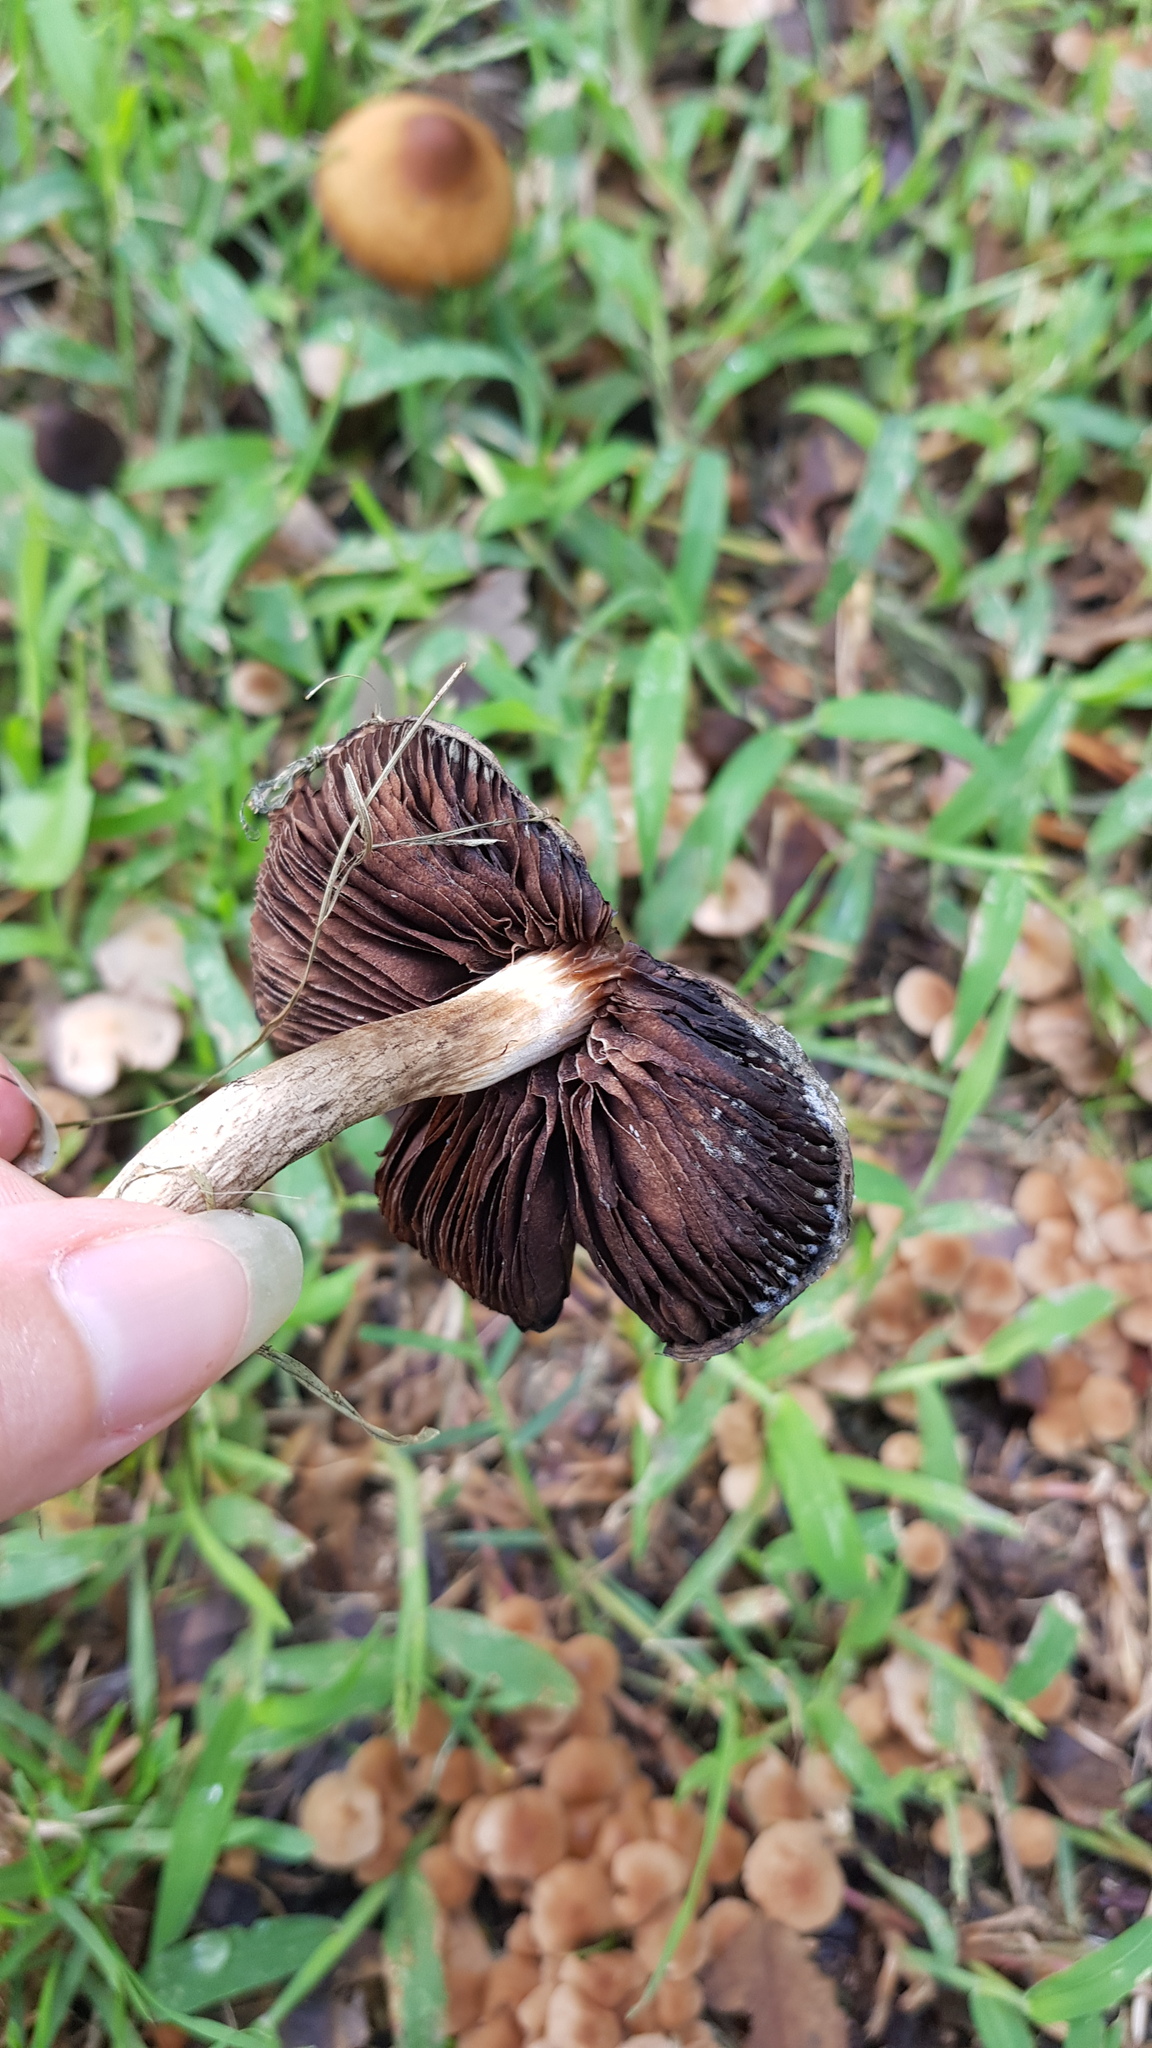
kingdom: Fungi
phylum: Basidiomycota
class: Agaricomycetes
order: Agaricales
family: Psathyrellaceae
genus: Psathyrella
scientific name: Psathyrella asperospora
